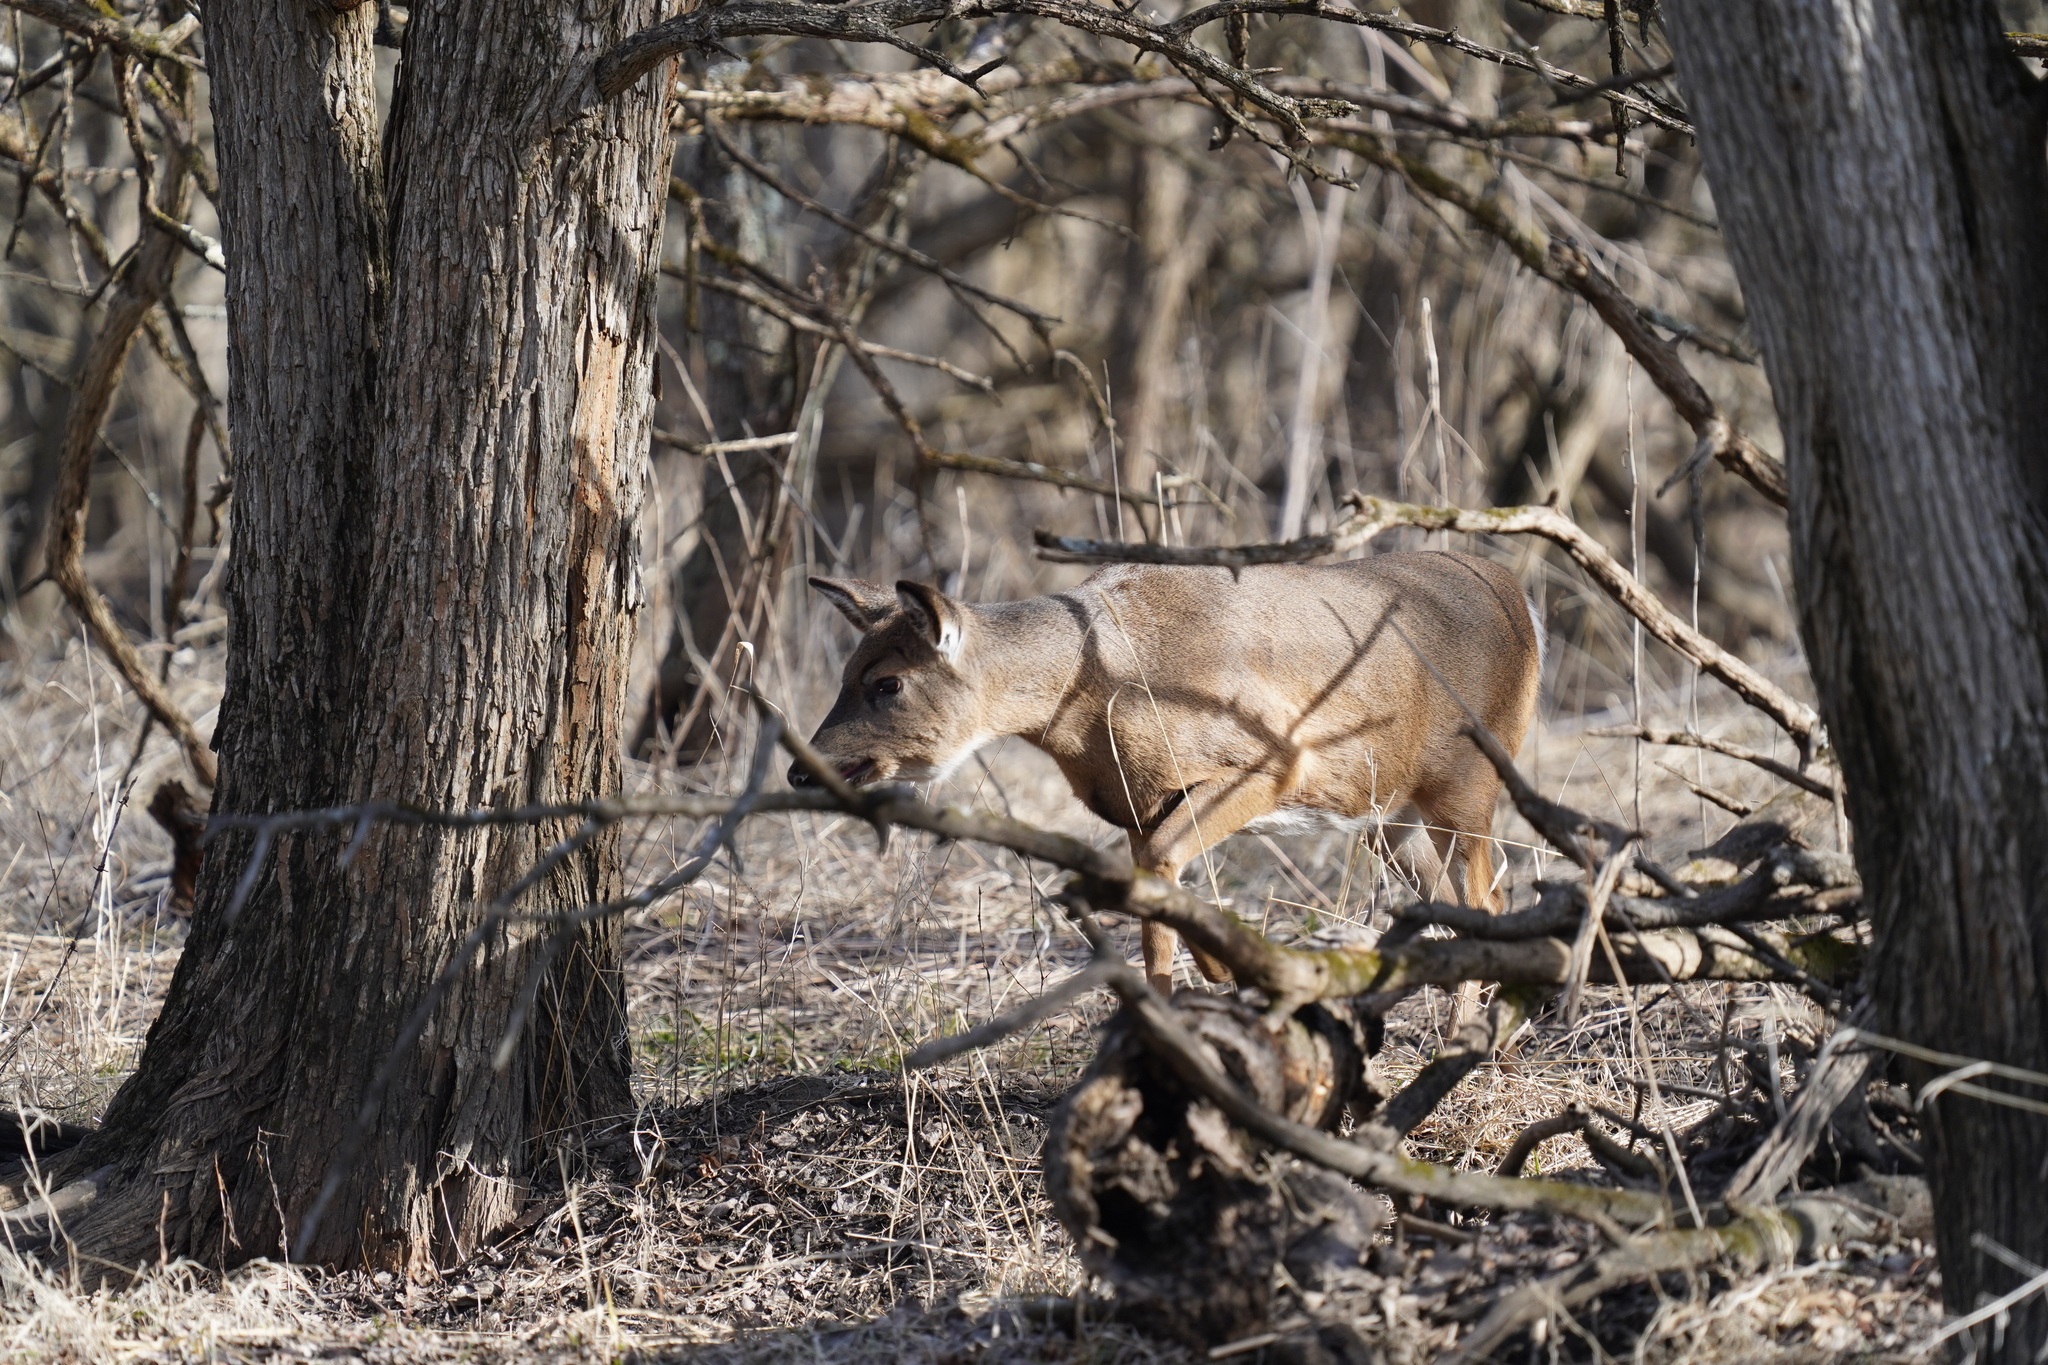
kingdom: Animalia
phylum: Chordata
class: Mammalia
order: Artiodactyla
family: Cervidae
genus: Odocoileus
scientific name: Odocoileus virginianus
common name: White-tailed deer
